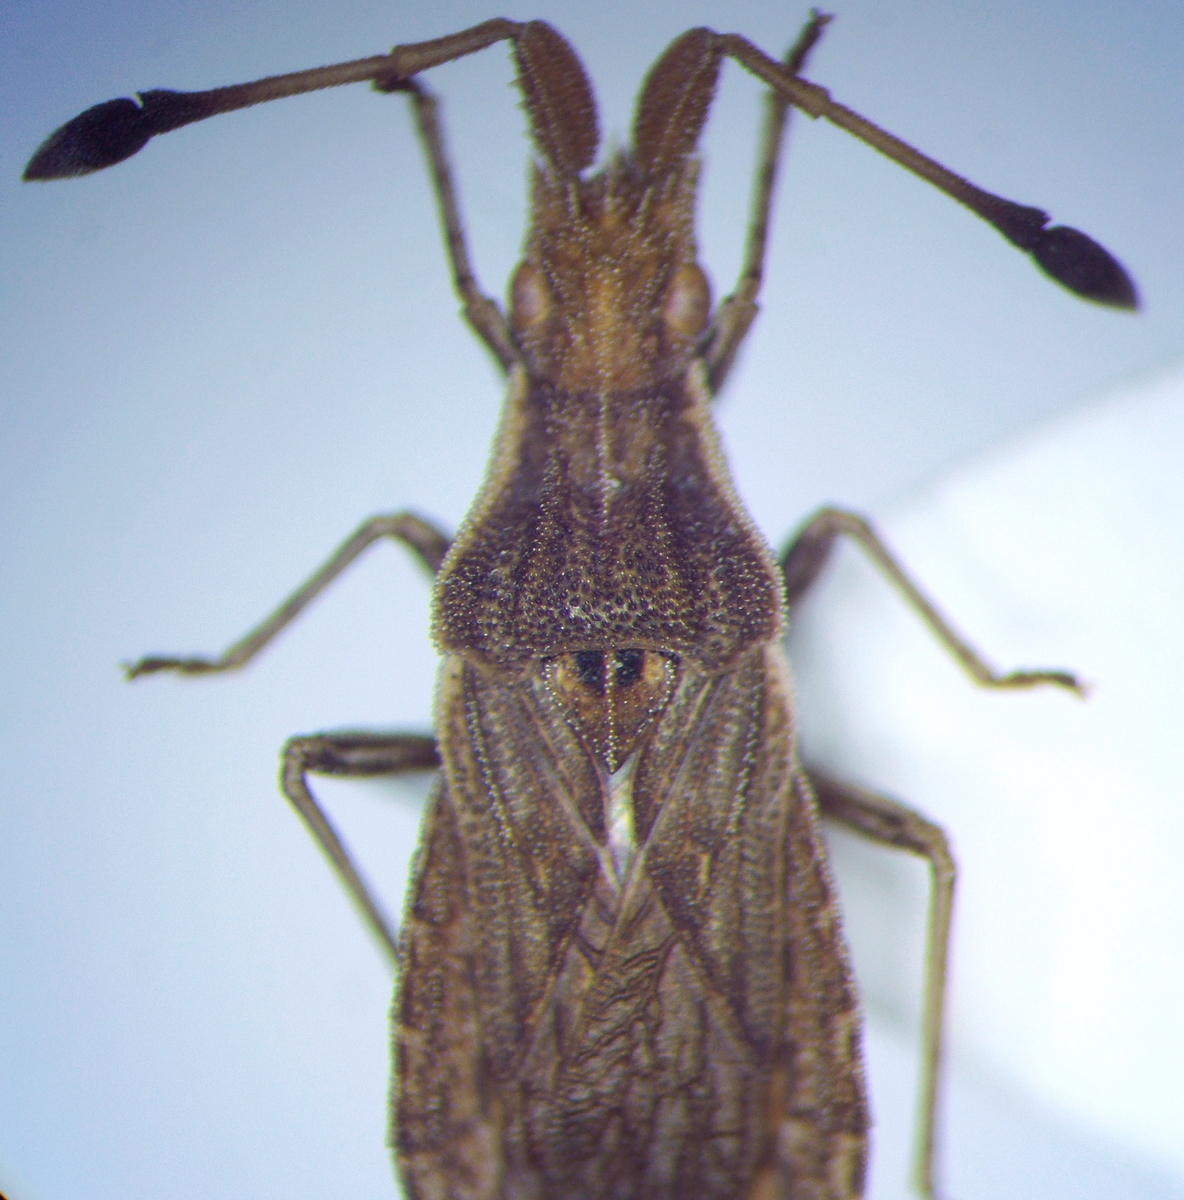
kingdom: Animalia
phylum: Arthropoda
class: Insecta
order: Hemiptera
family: Coreidae
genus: Spathocera
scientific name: Spathocera lobata
